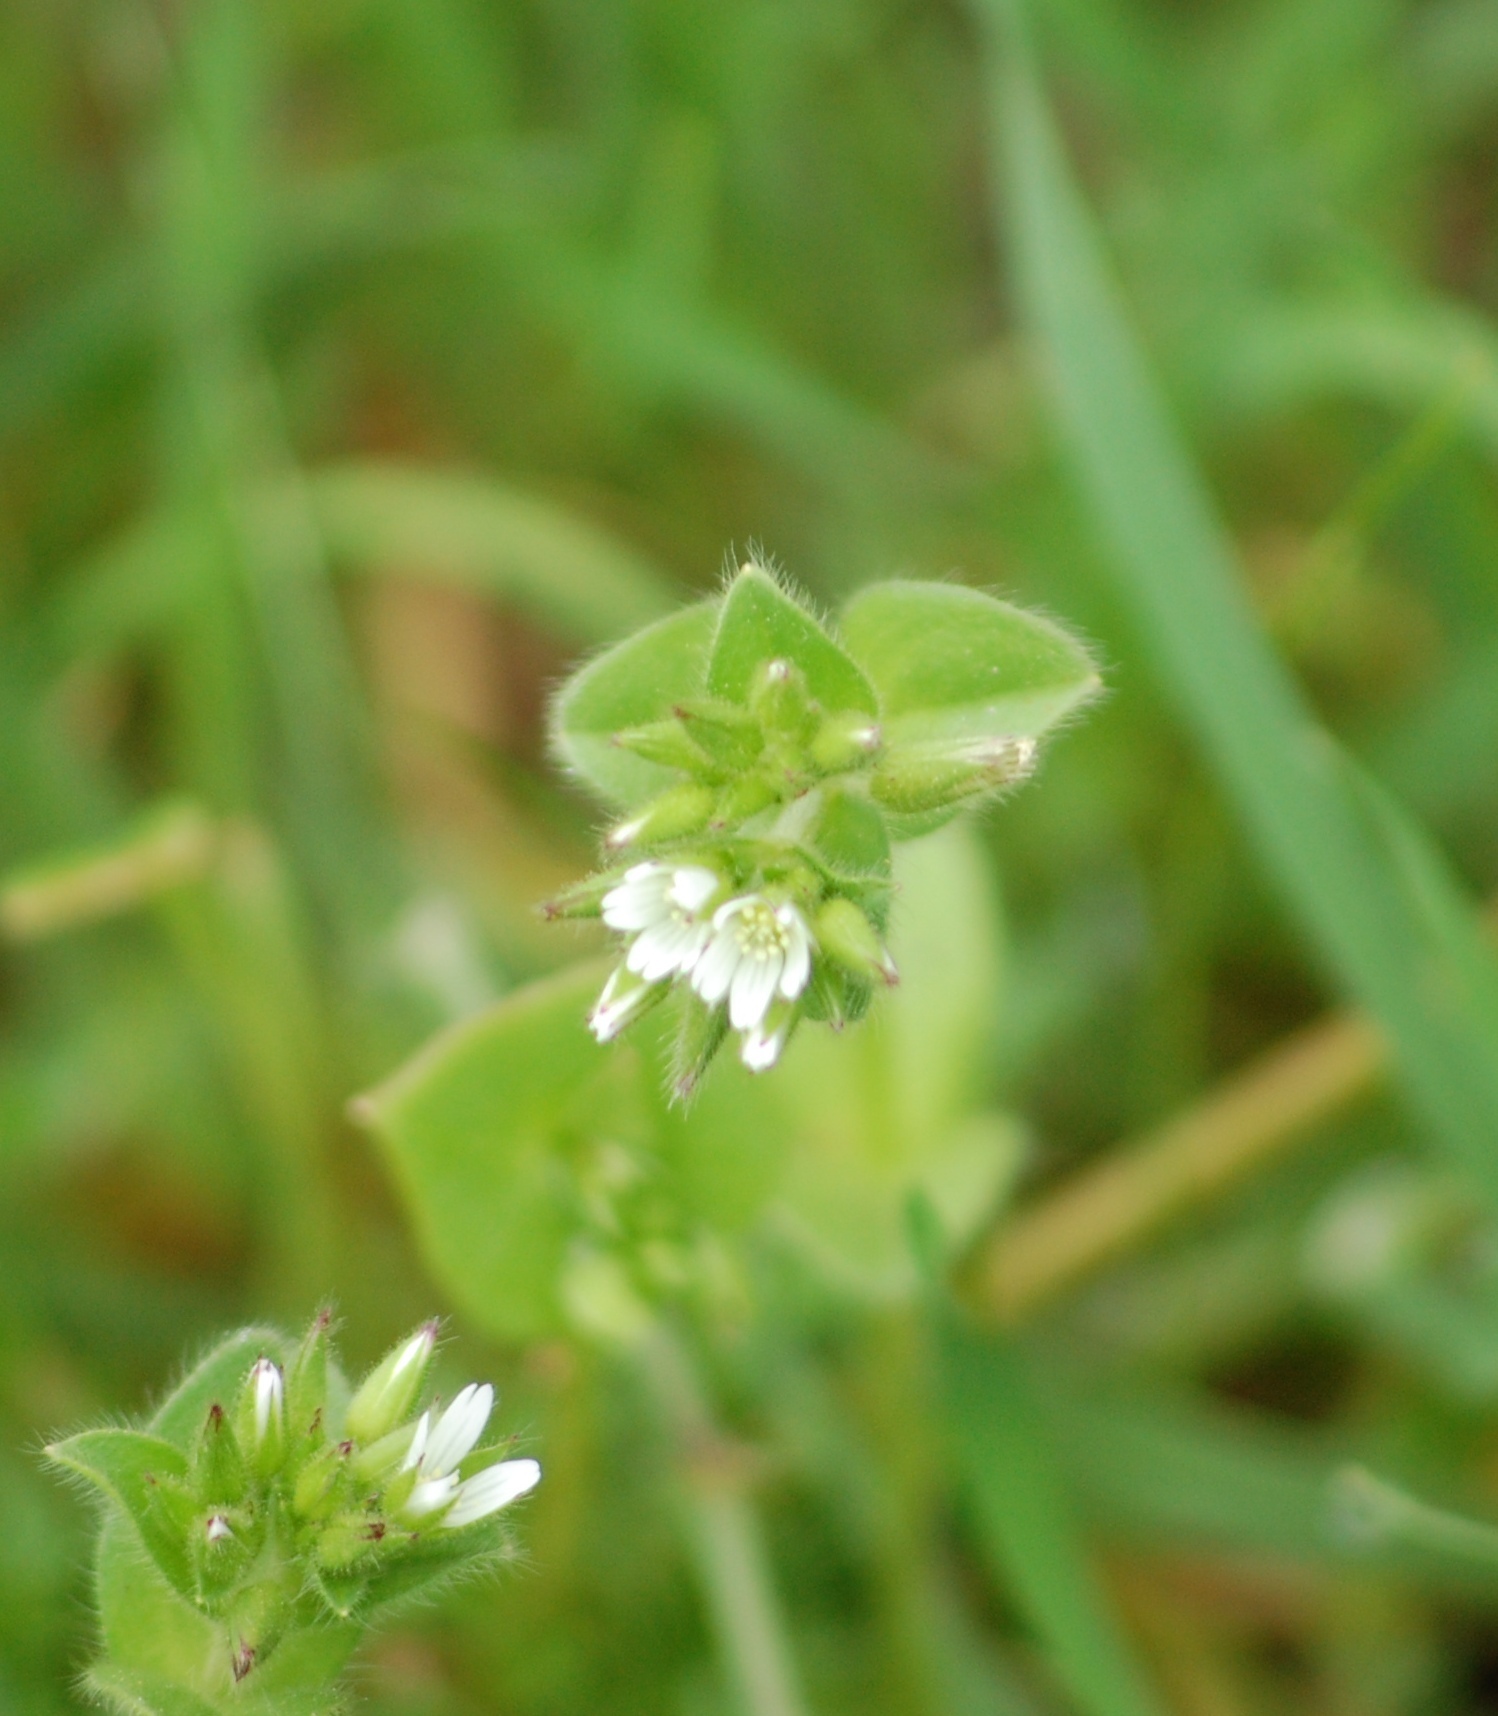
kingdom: Plantae
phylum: Tracheophyta
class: Magnoliopsida
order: Caryophyllales
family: Caryophyllaceae
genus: Cerastium
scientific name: Cerastium glomeratum
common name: Sticky chickweed
